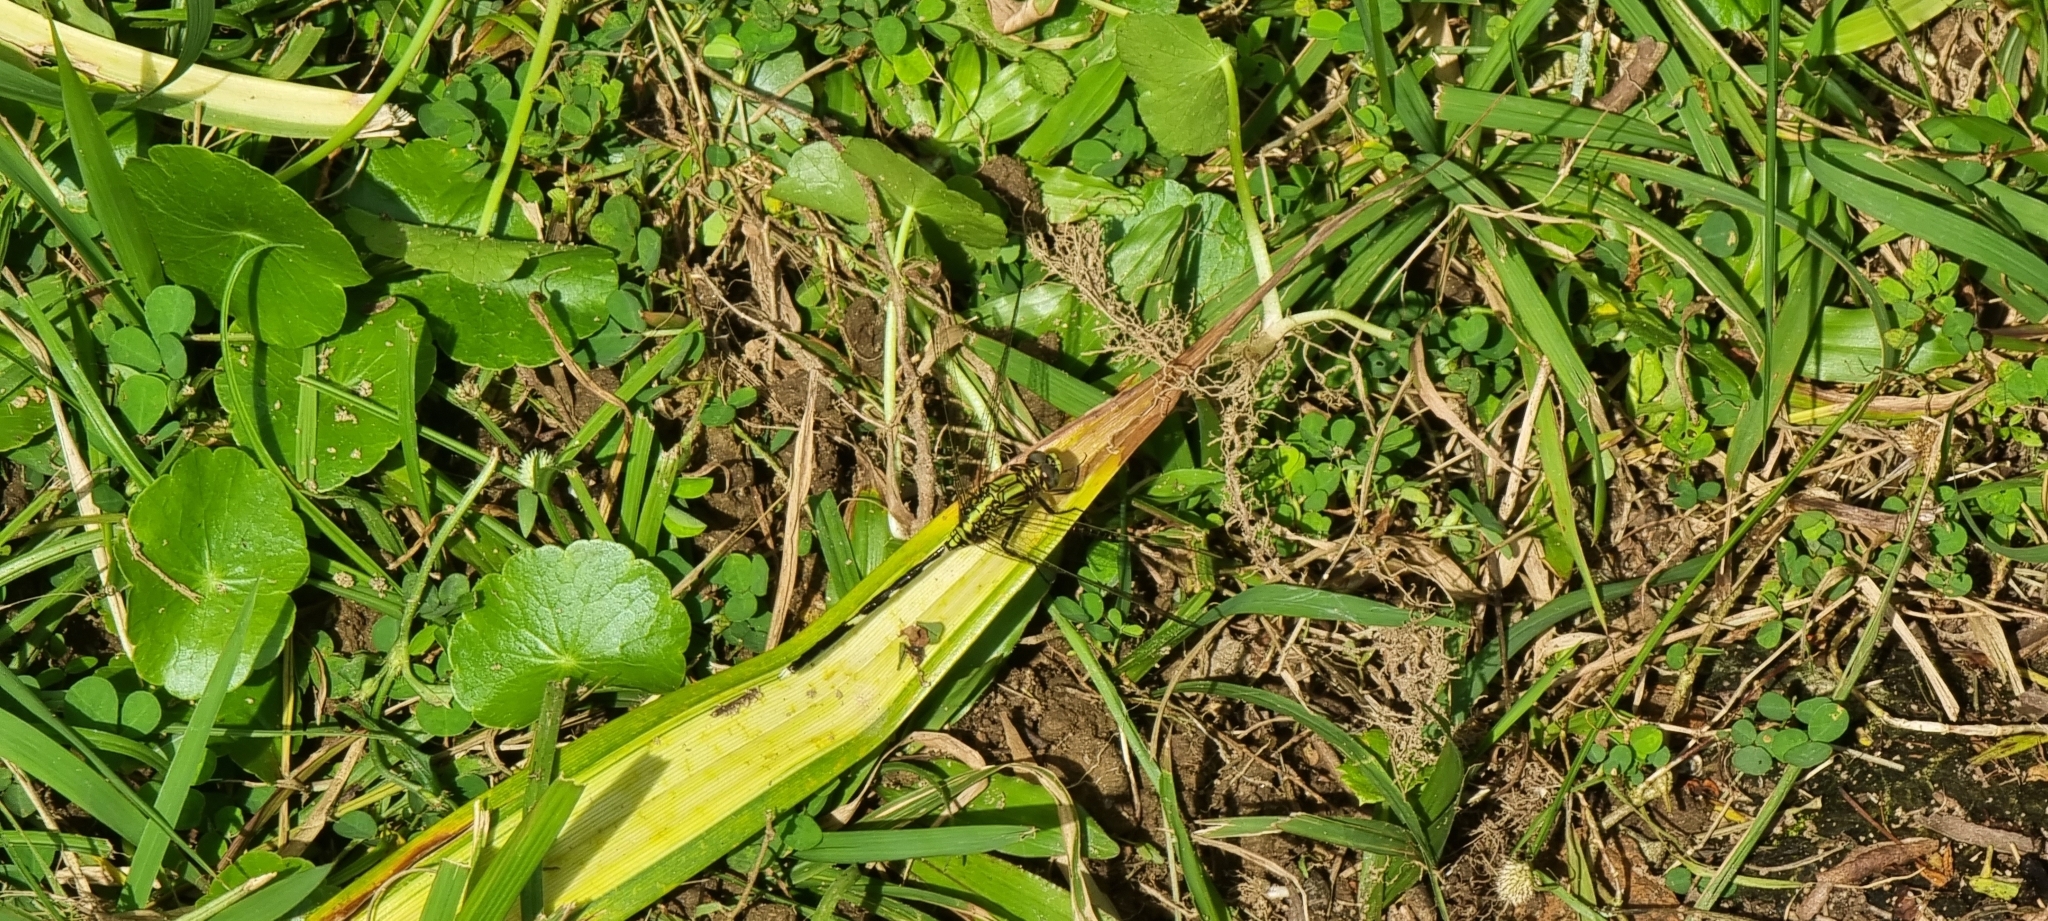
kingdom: Animalia
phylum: Arthropoda
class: Insecta
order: Odonata
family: Libellulidae
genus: Orthetrum
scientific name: Orthetrum sabina
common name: Slender skimmer
